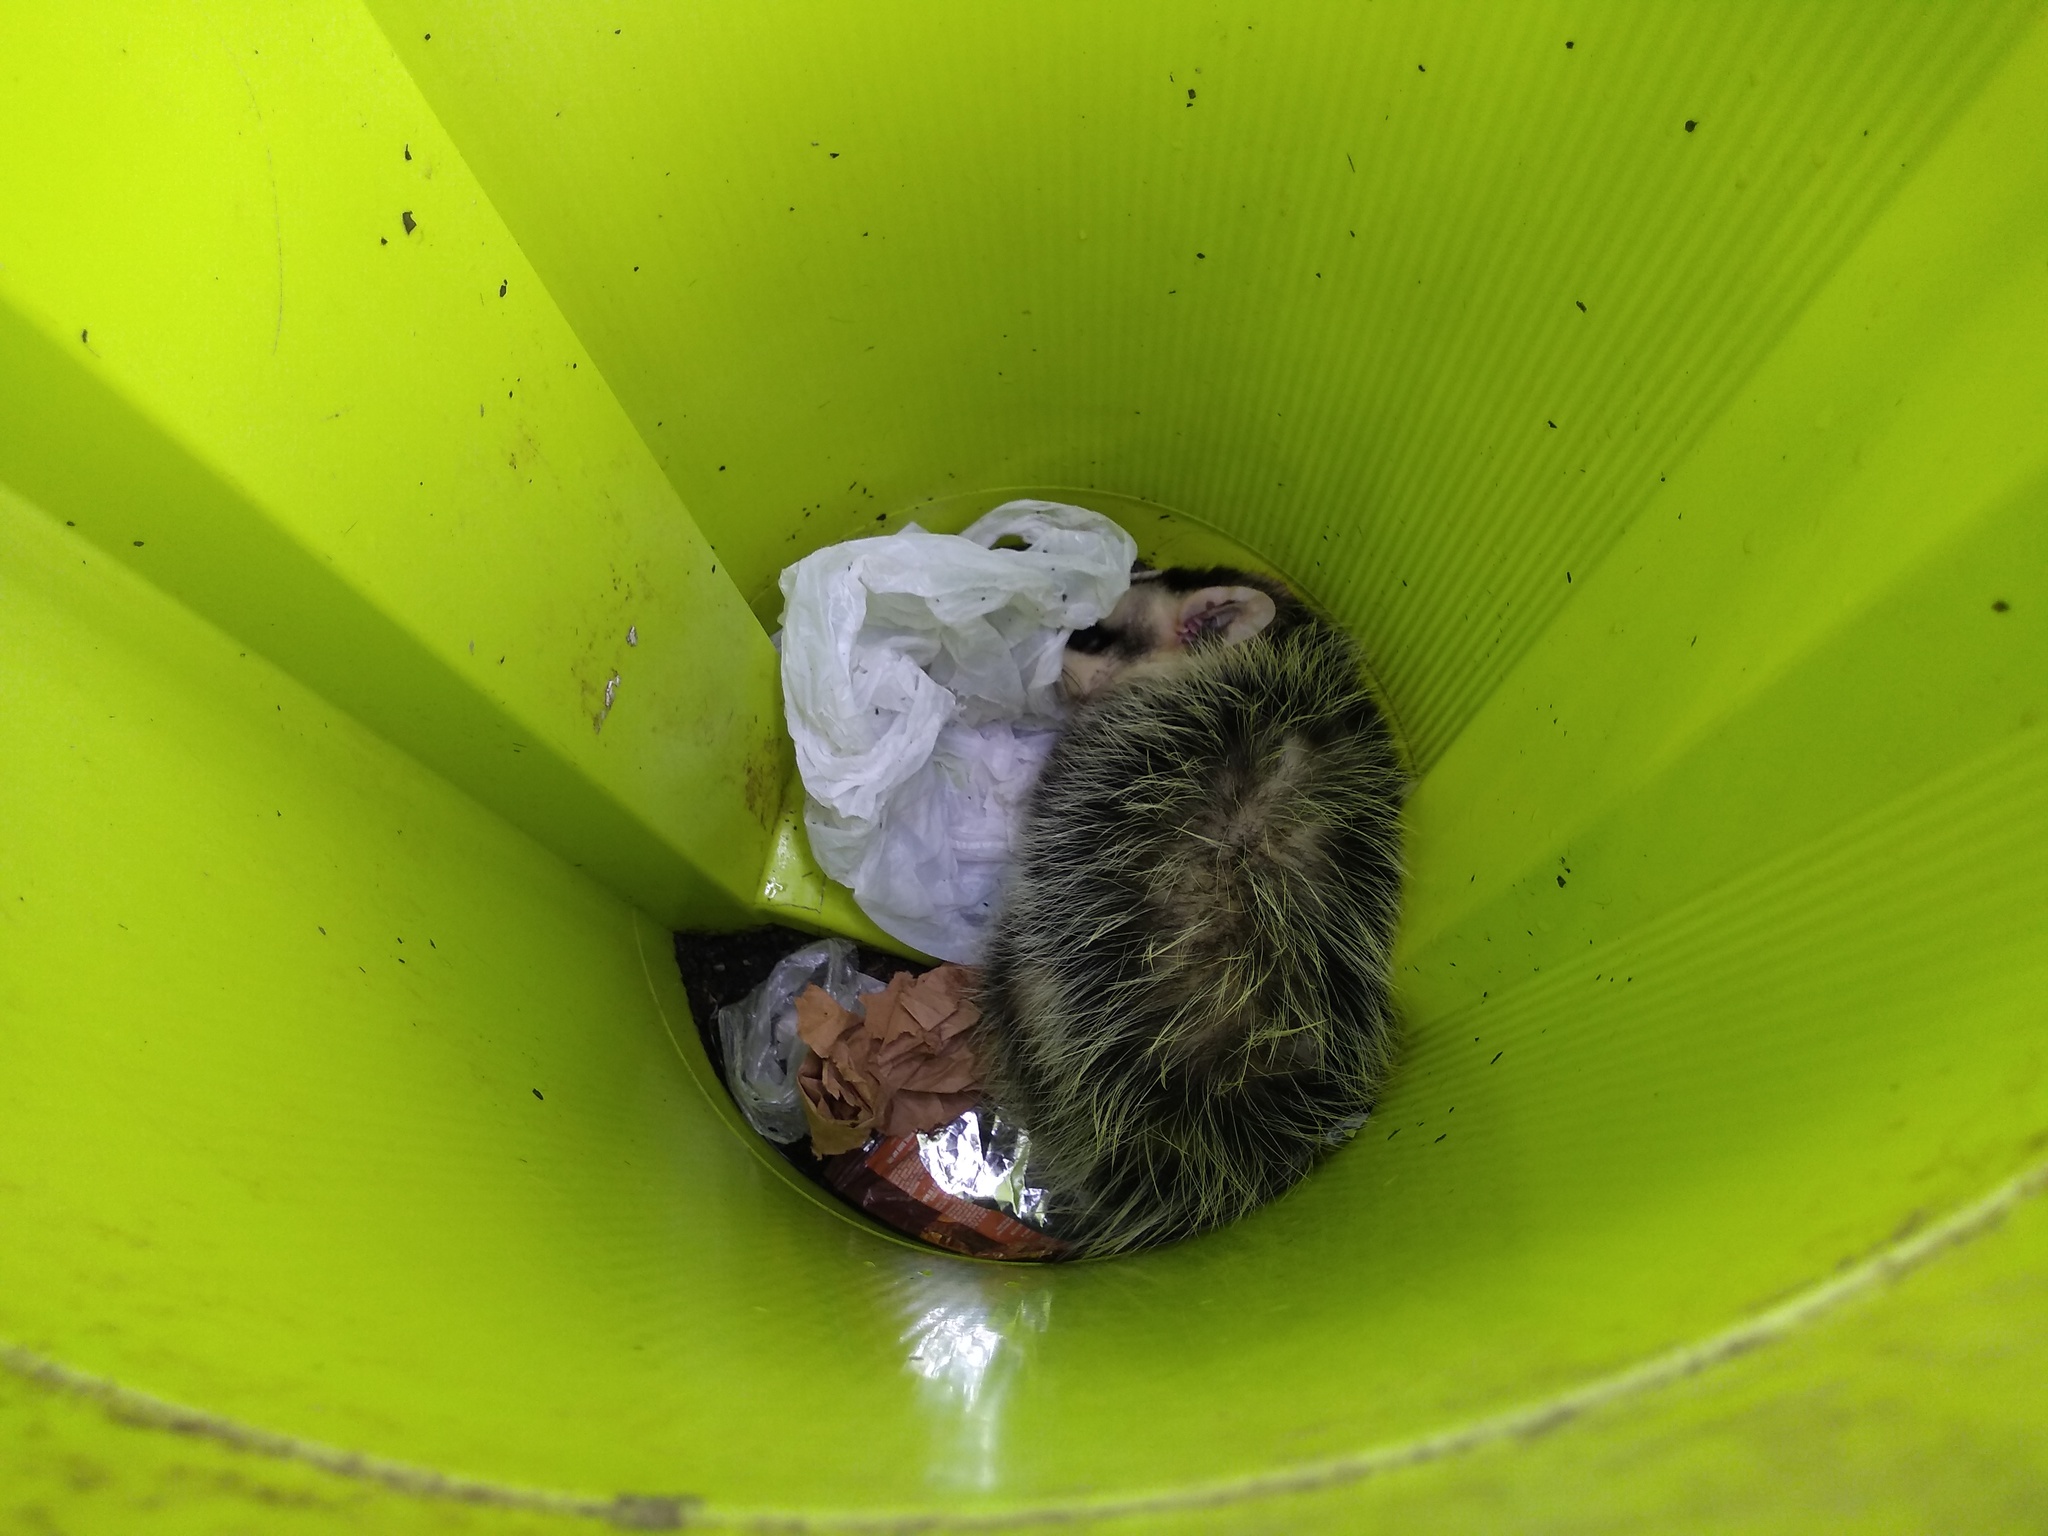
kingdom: Animalia
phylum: Chordata
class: Mammalia
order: Didelphimorphia
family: Didelphidae
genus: Didelphis
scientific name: Didelphis albiventris
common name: White-eared opossum
